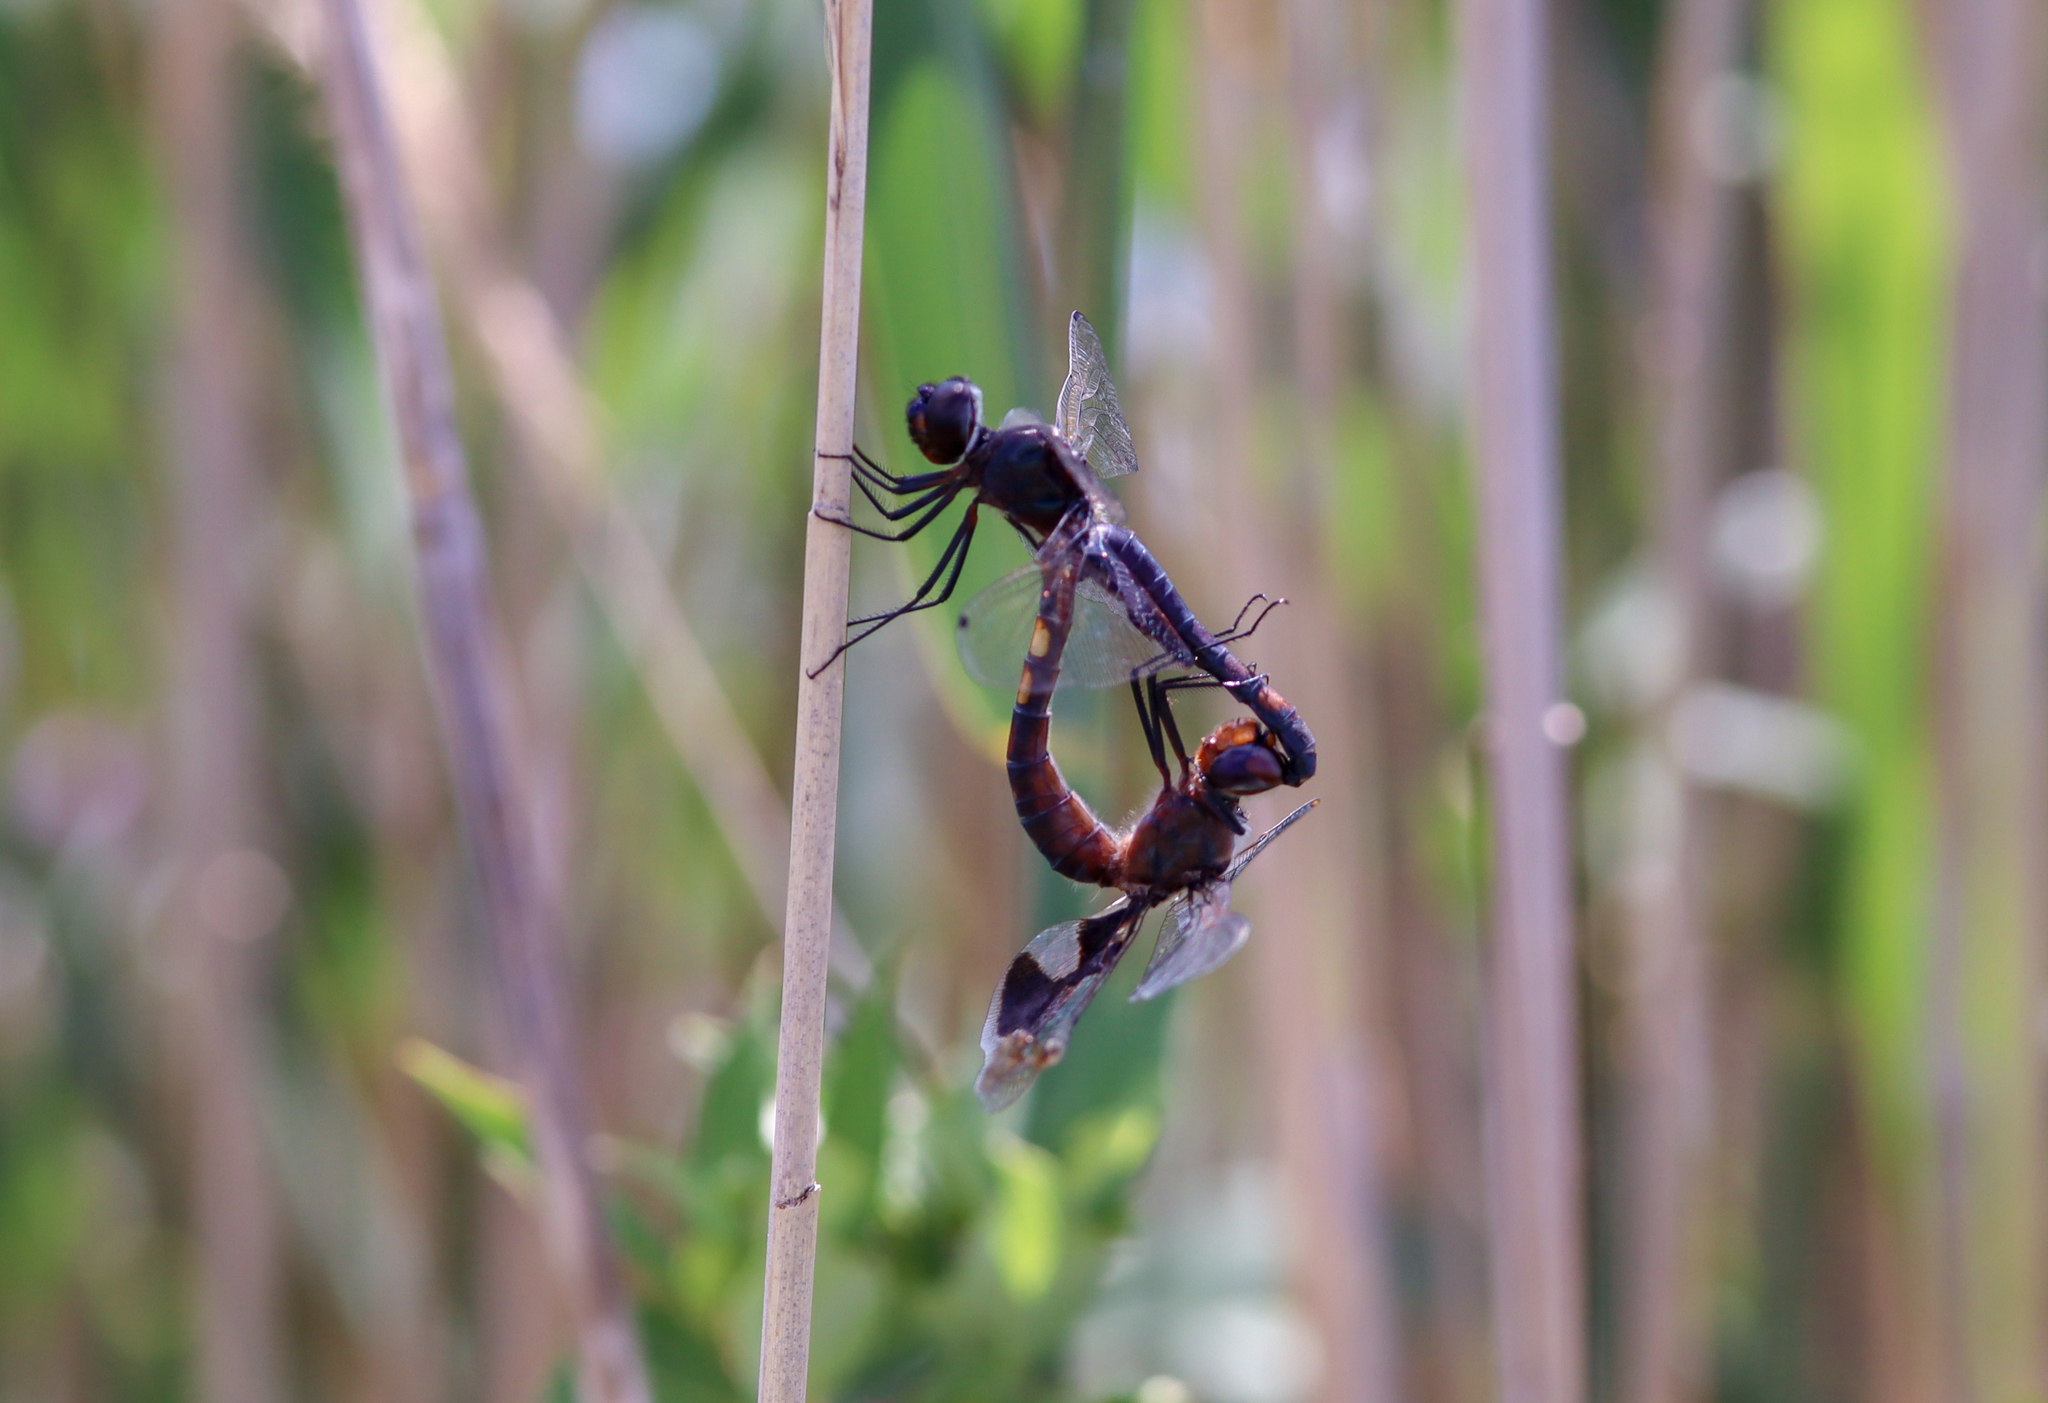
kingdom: Animalia
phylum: Arthropoda
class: Insecta
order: Odonata
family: Libellulidae
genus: Tramea
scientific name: Tramea lacerata
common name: Black saddlebags
